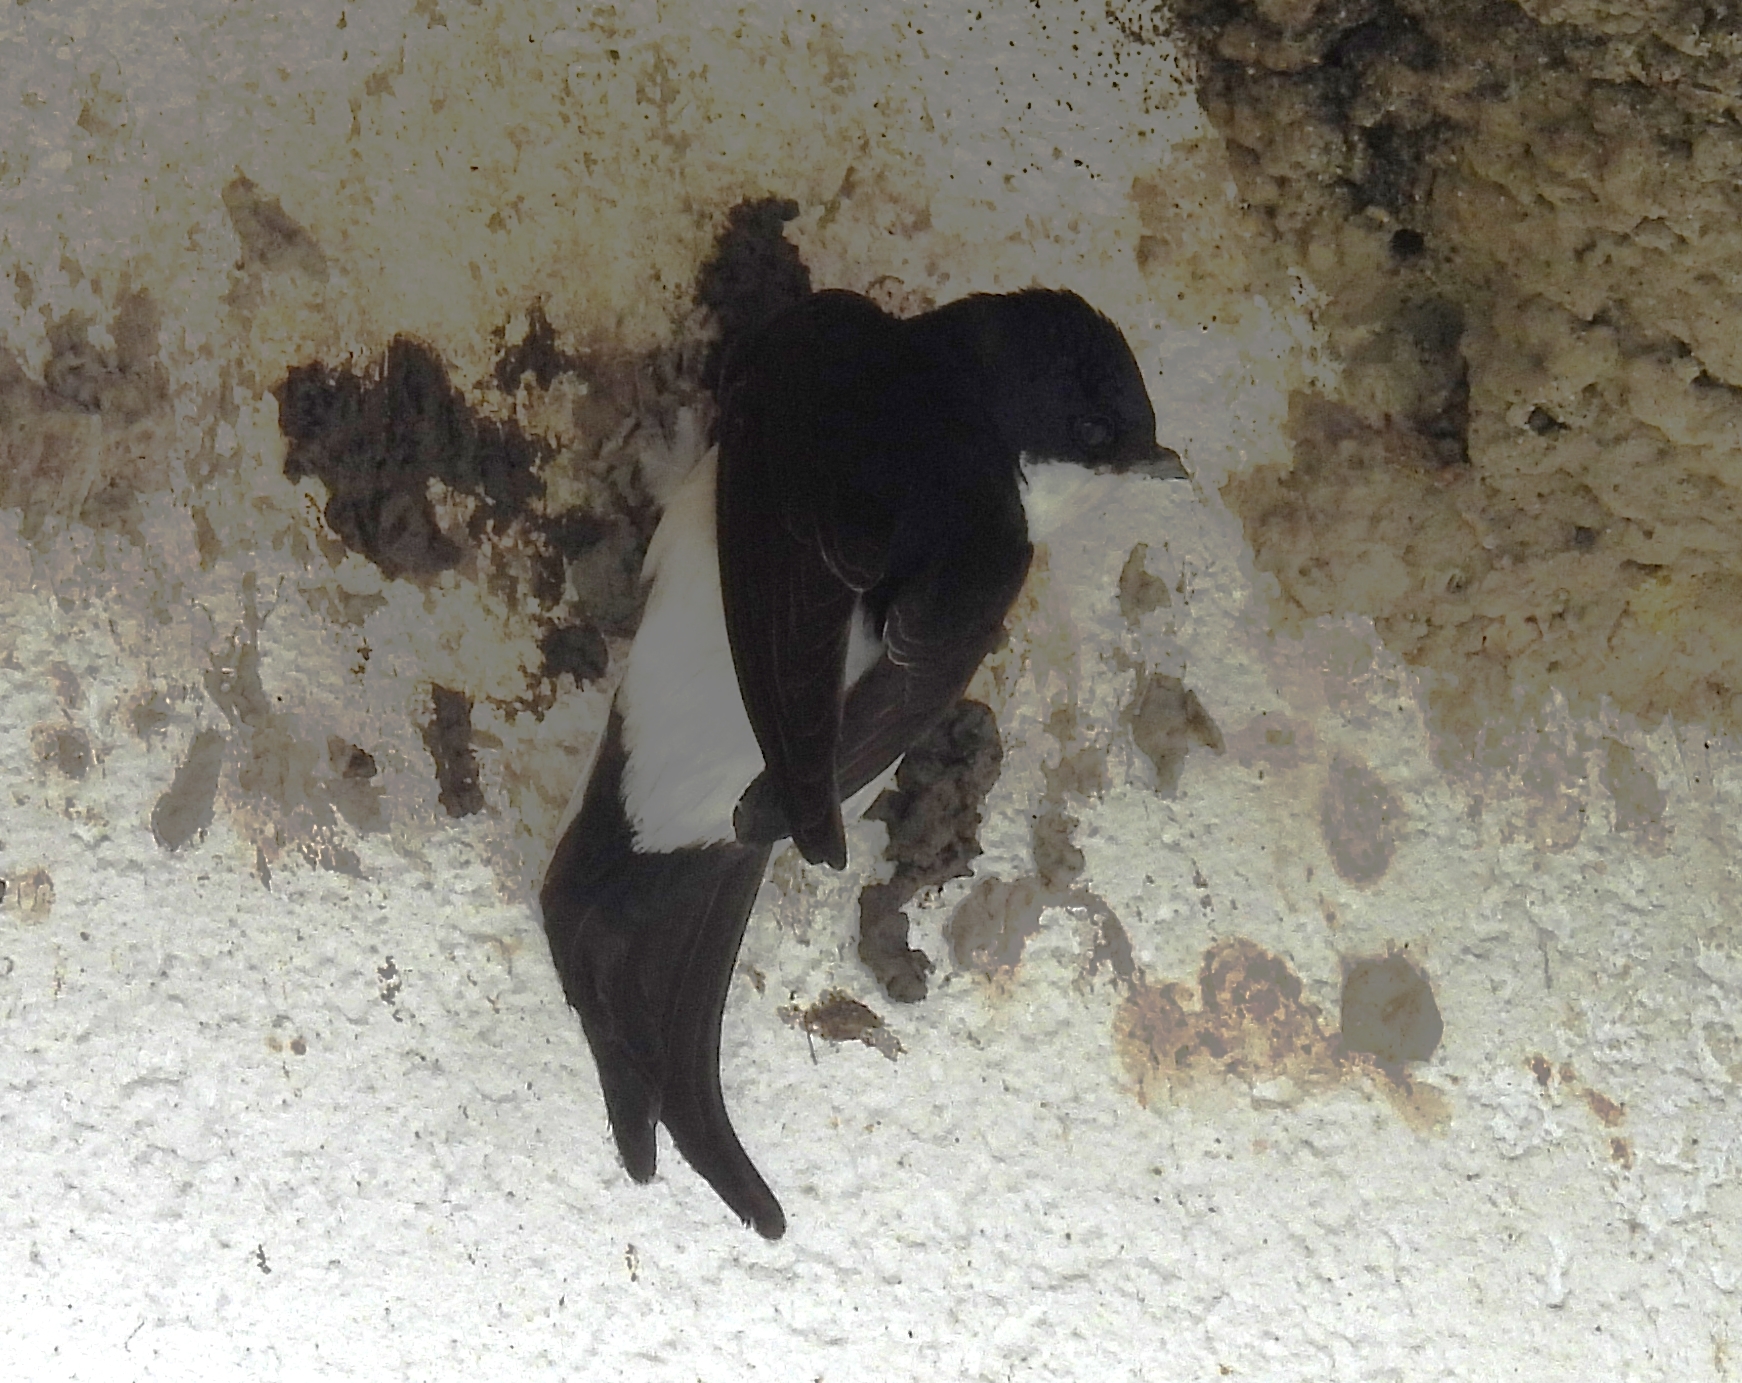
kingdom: Animalia
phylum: Chordata
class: Aves
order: Passeriformes
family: Hirundinidae
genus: Delichon
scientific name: Delichon urbicum
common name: Common house martin
